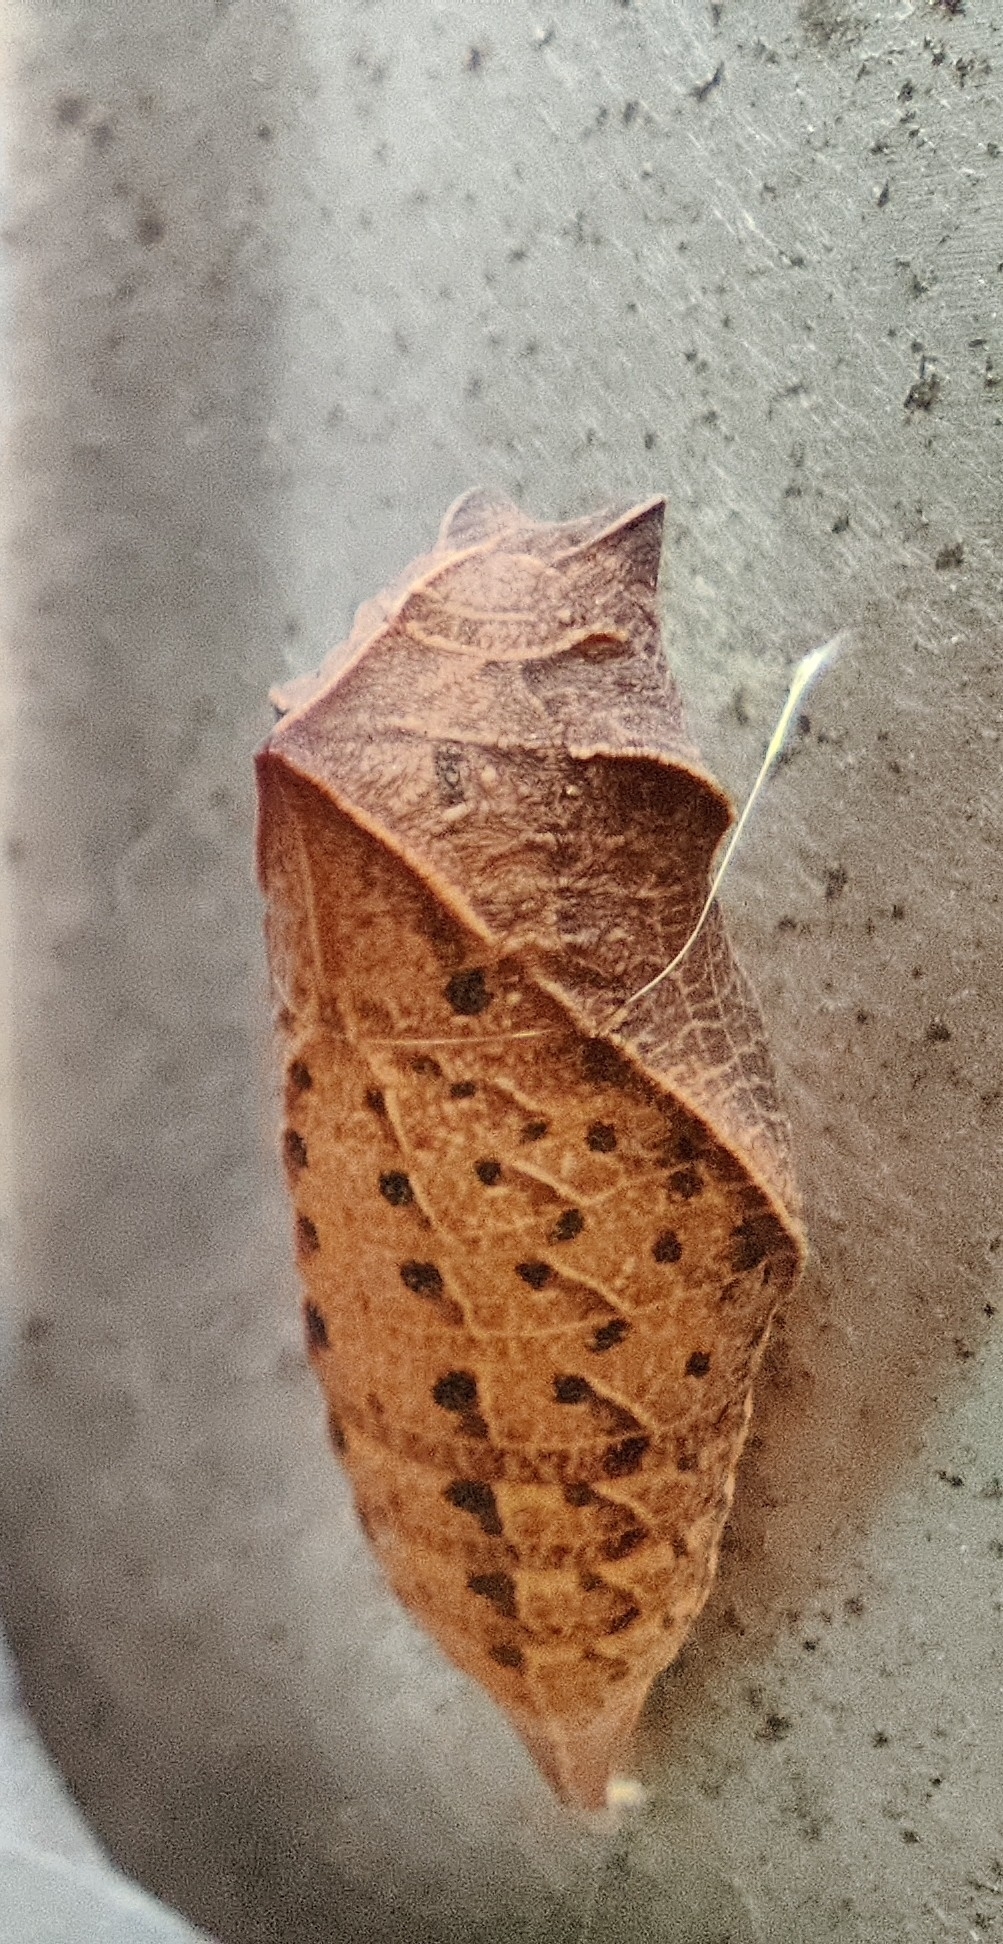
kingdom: Animalia
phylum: Arthropoda
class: Insecta
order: Lepidoptera
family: Papilionidae
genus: Iphiclides
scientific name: Iphiclides podalirius
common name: Scarce swallowtail
